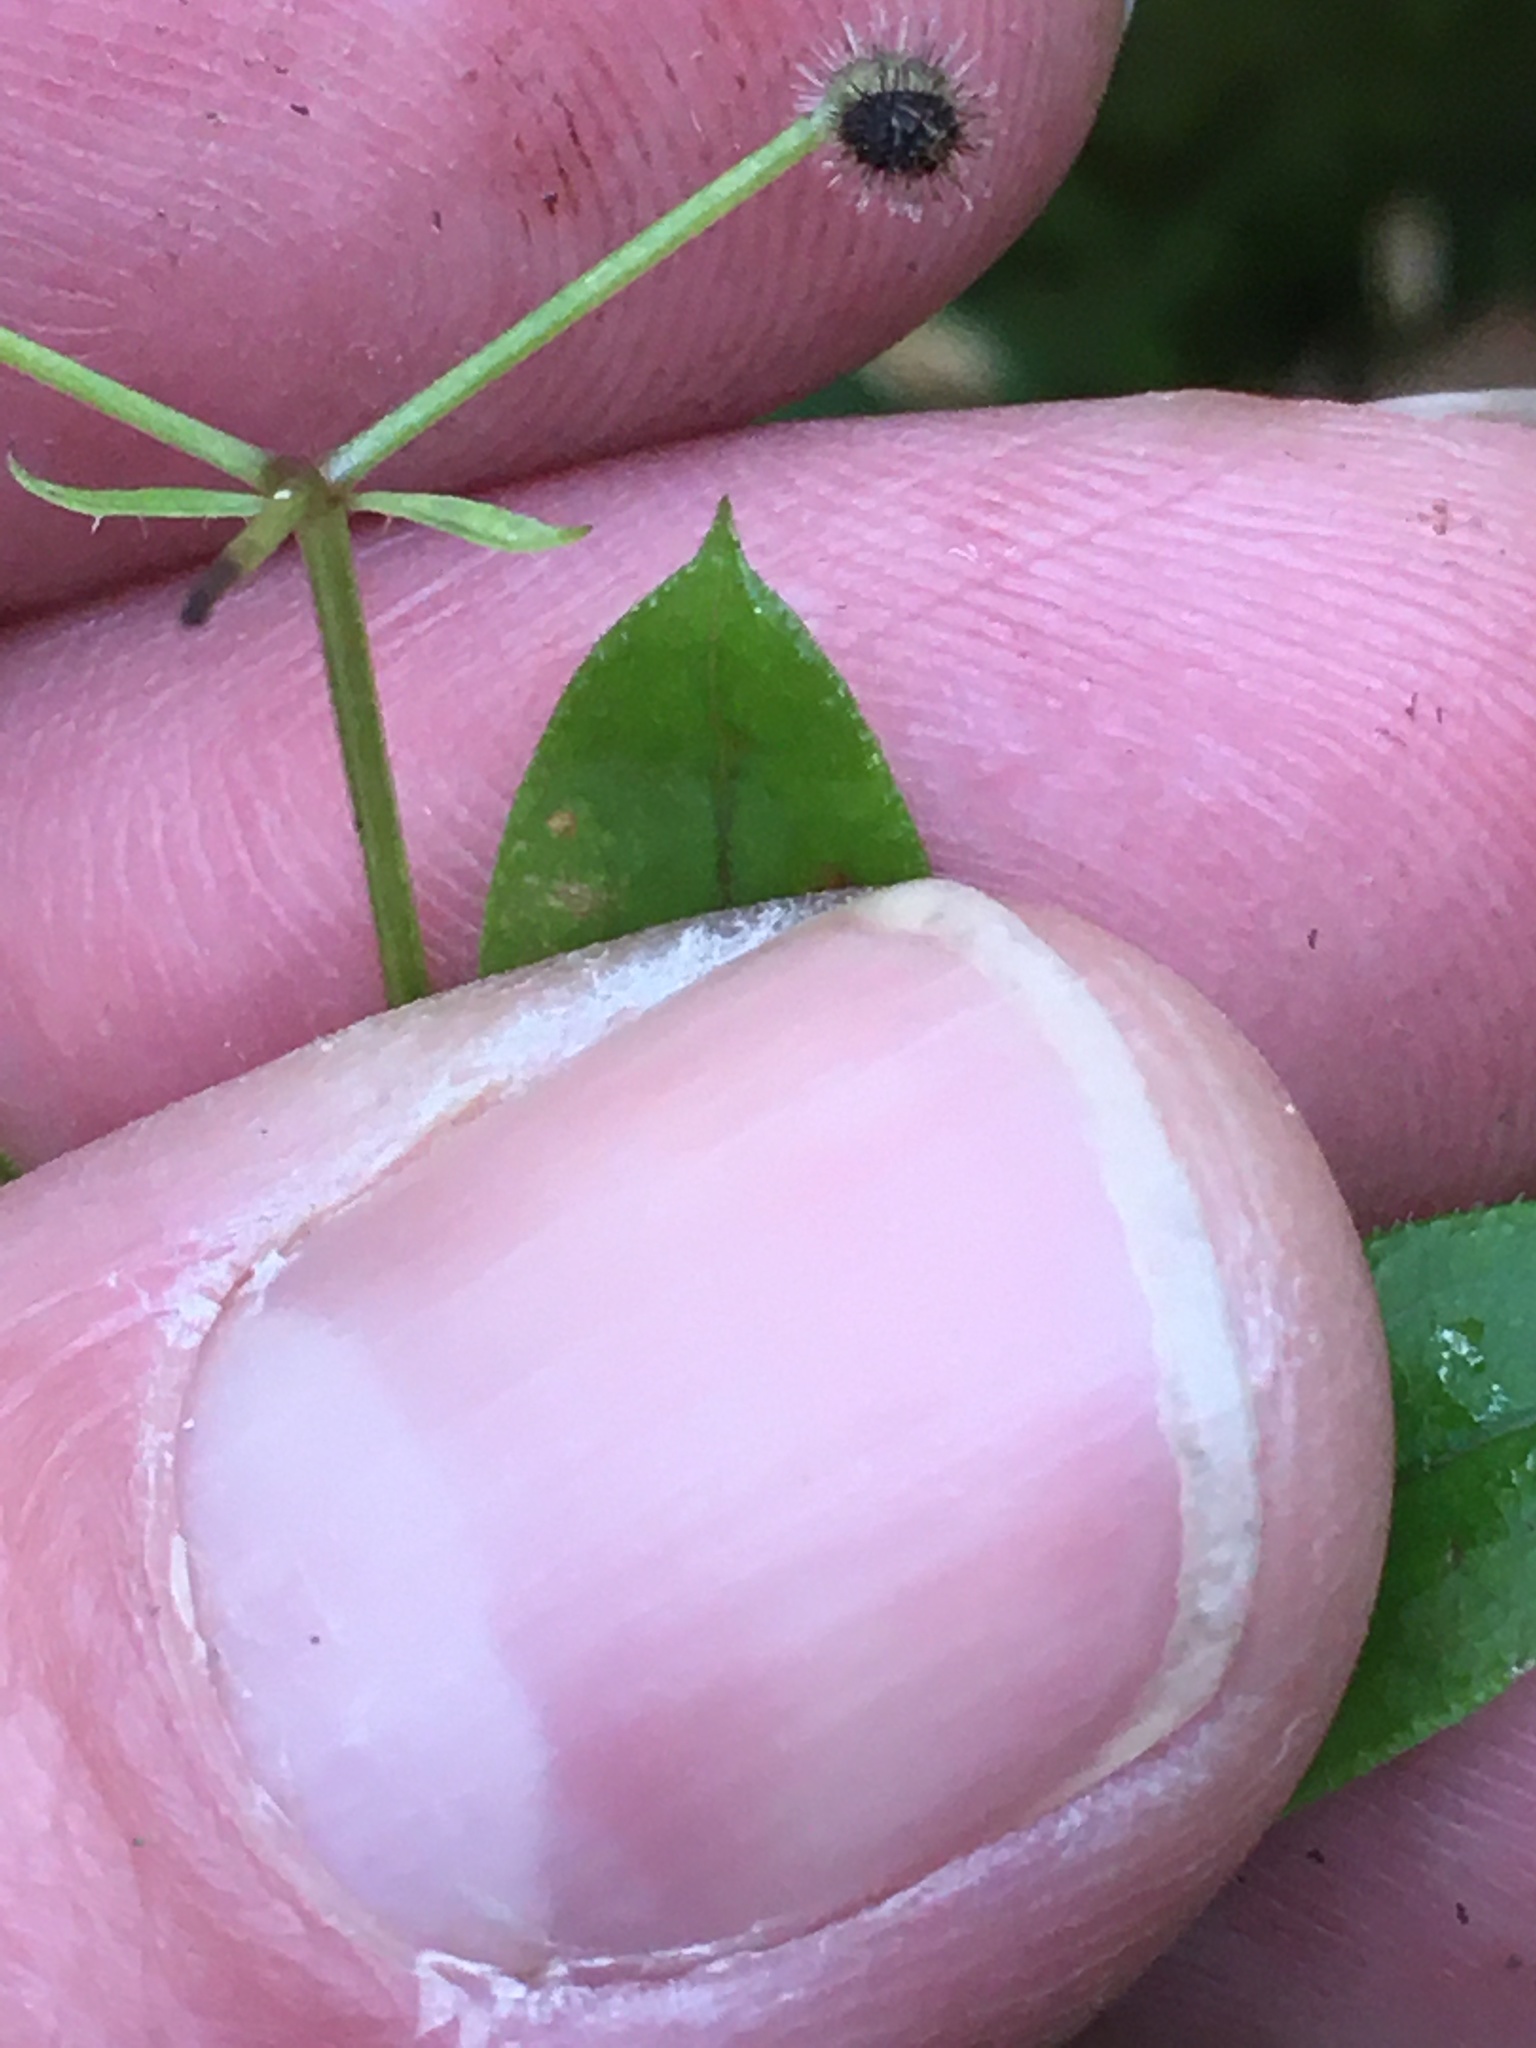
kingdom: Plantae
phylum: Tracheophyta
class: Magnoliopsida
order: Gentianales
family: Rubiaceae
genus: Galium
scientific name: Galium triflorum
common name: Fragrant bedstraw
